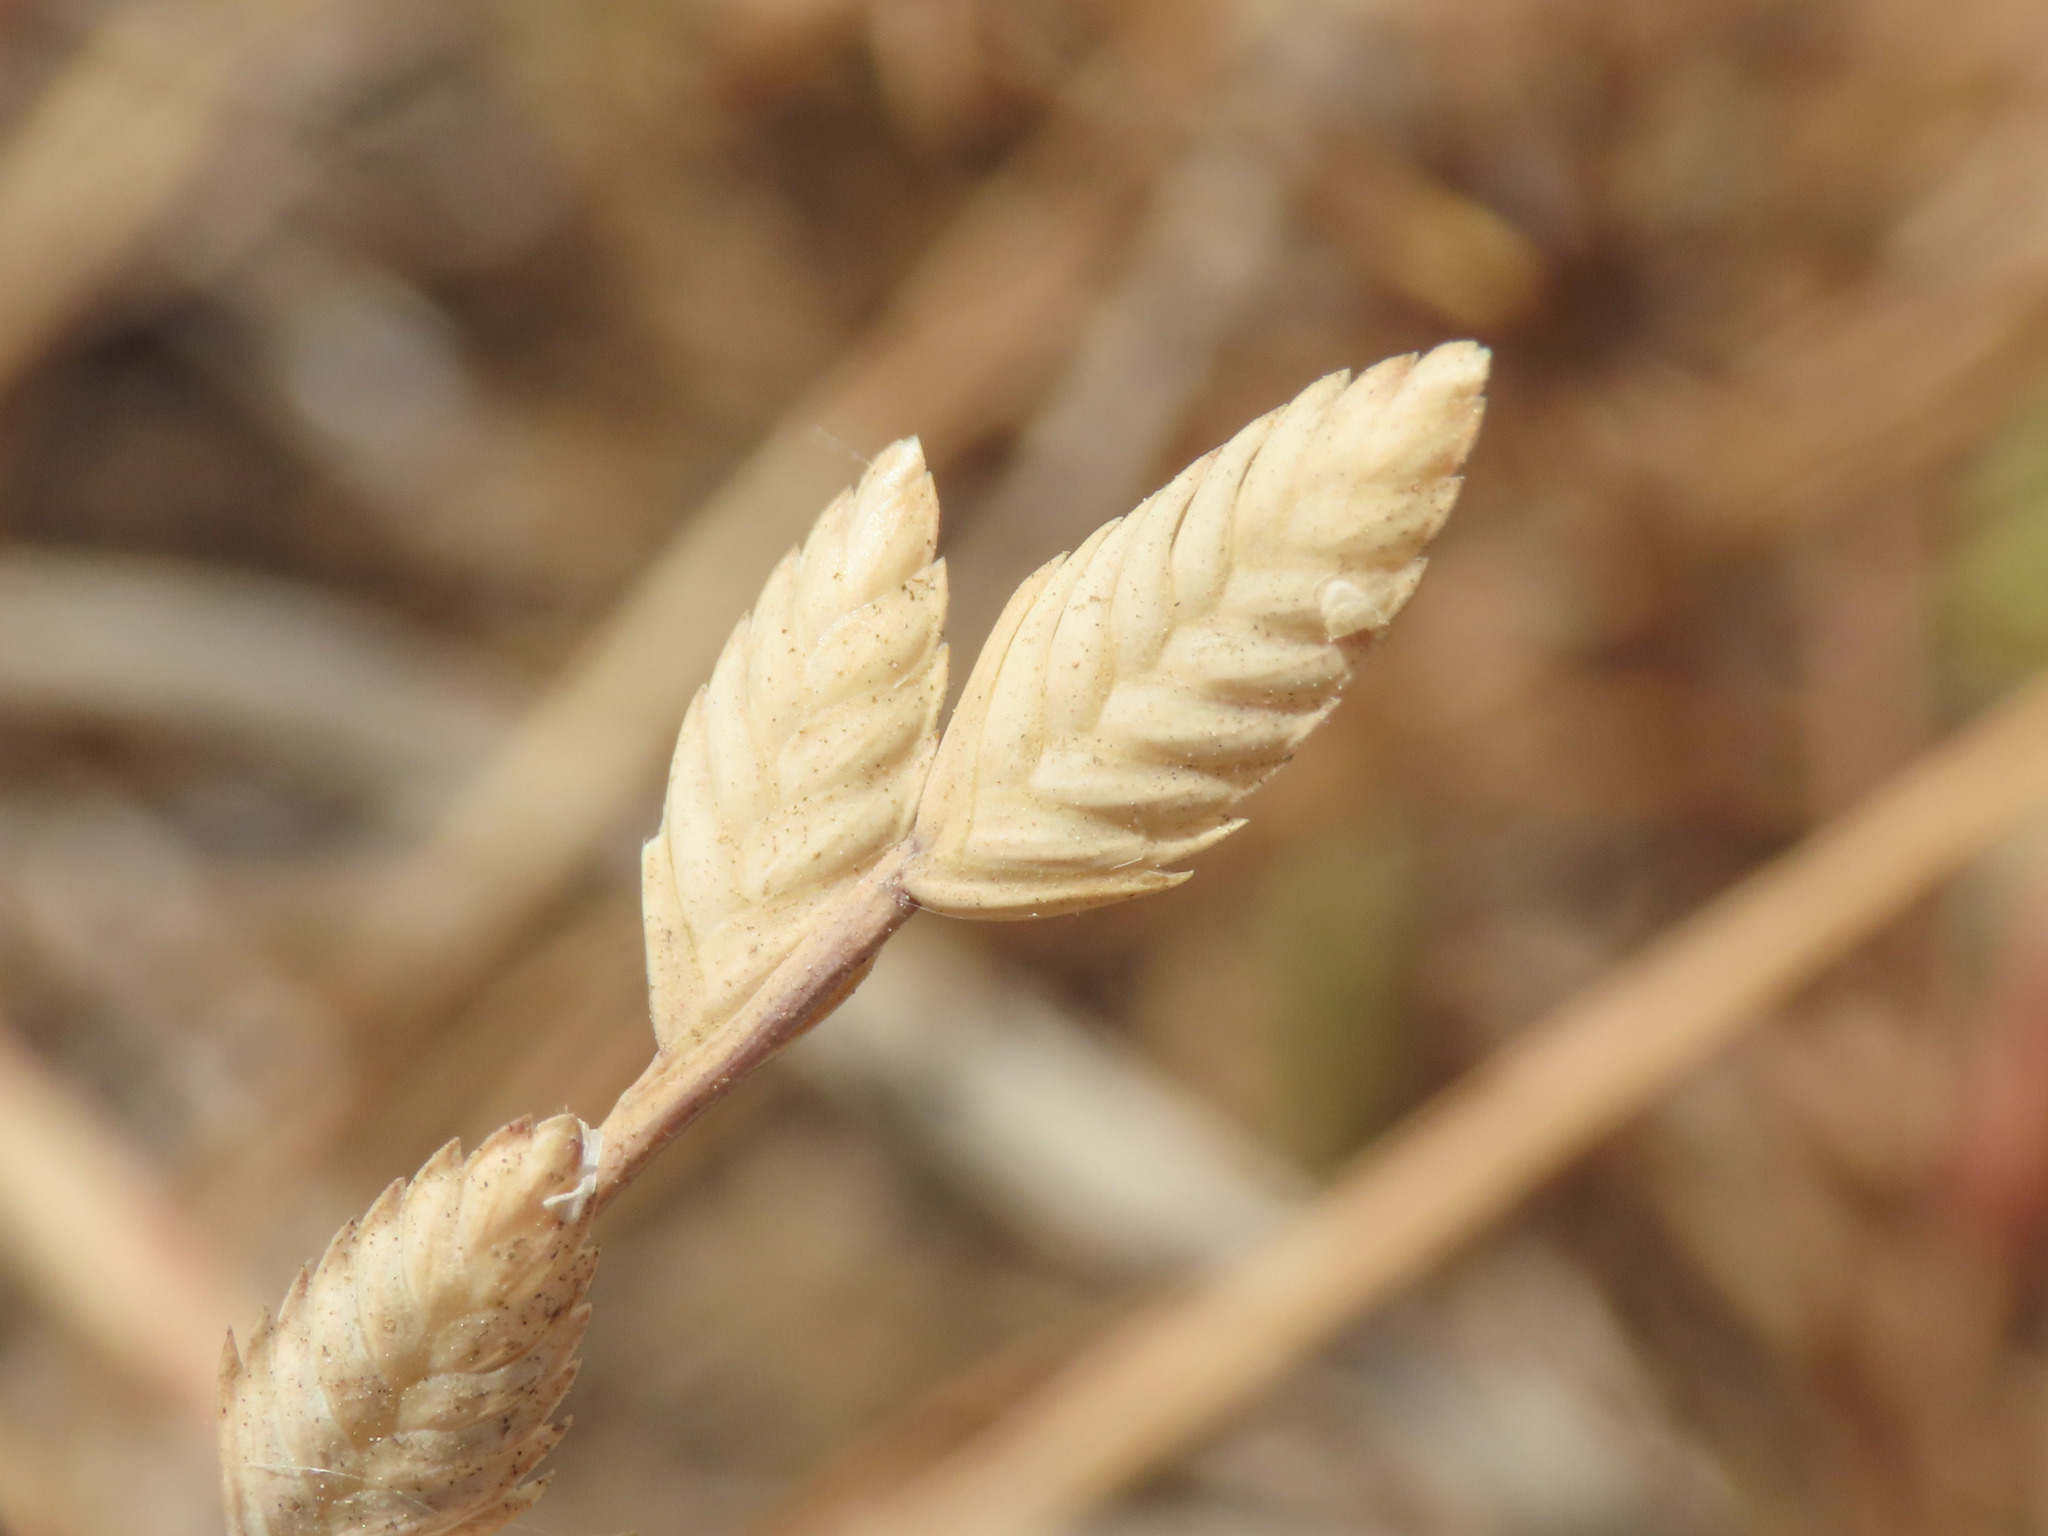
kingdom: Plantae
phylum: Tracheophyta
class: Liliopsida
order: Poales
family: Poaceae
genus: Desmazeria
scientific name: Desmazeria sicula
